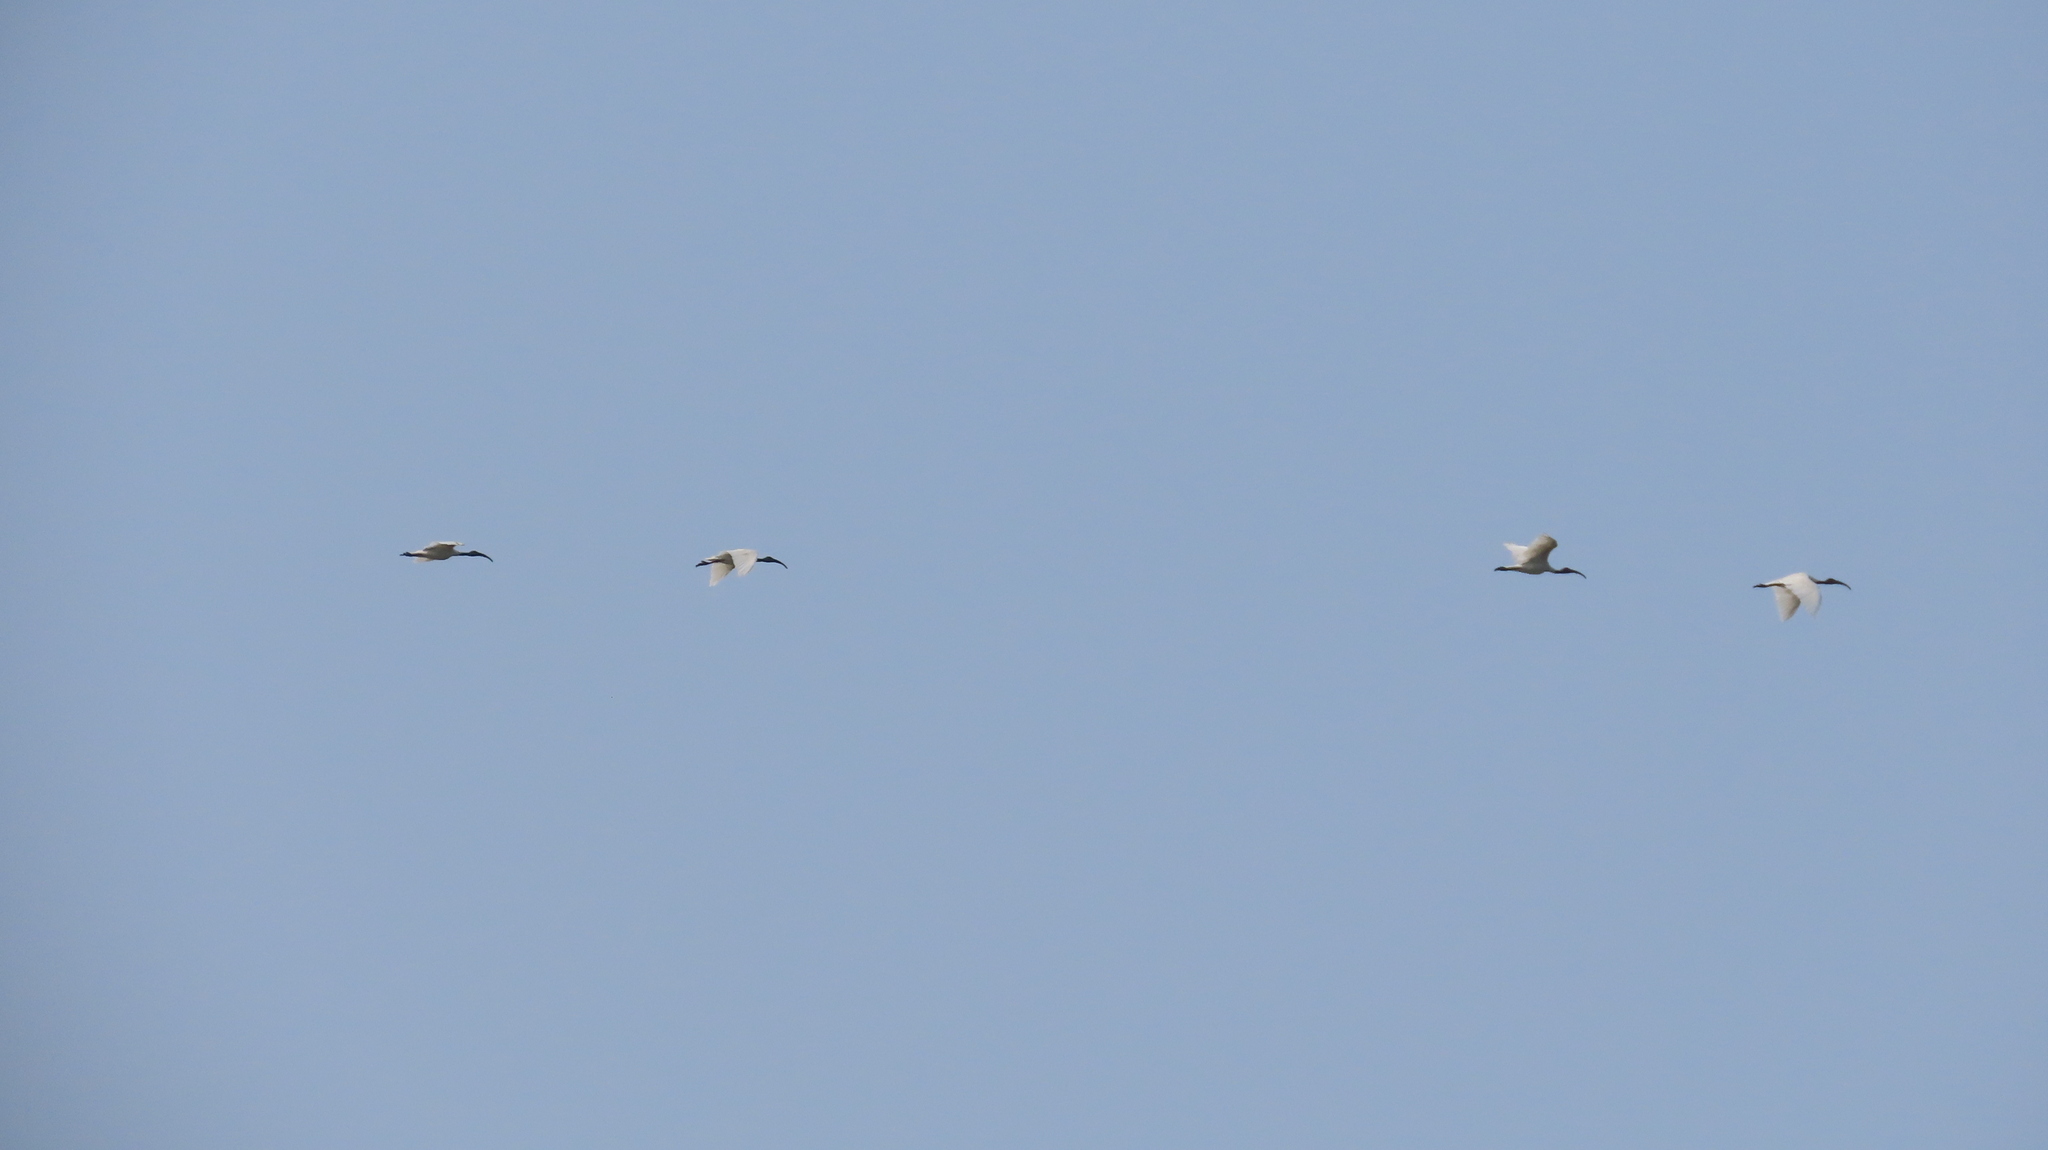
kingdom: Animalia
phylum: Chordata
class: Aves
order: Pelecaniformes
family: Threskiornithidae
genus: Threskiornis
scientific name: Threskiornis melanocephalus
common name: Black-headed ibis
